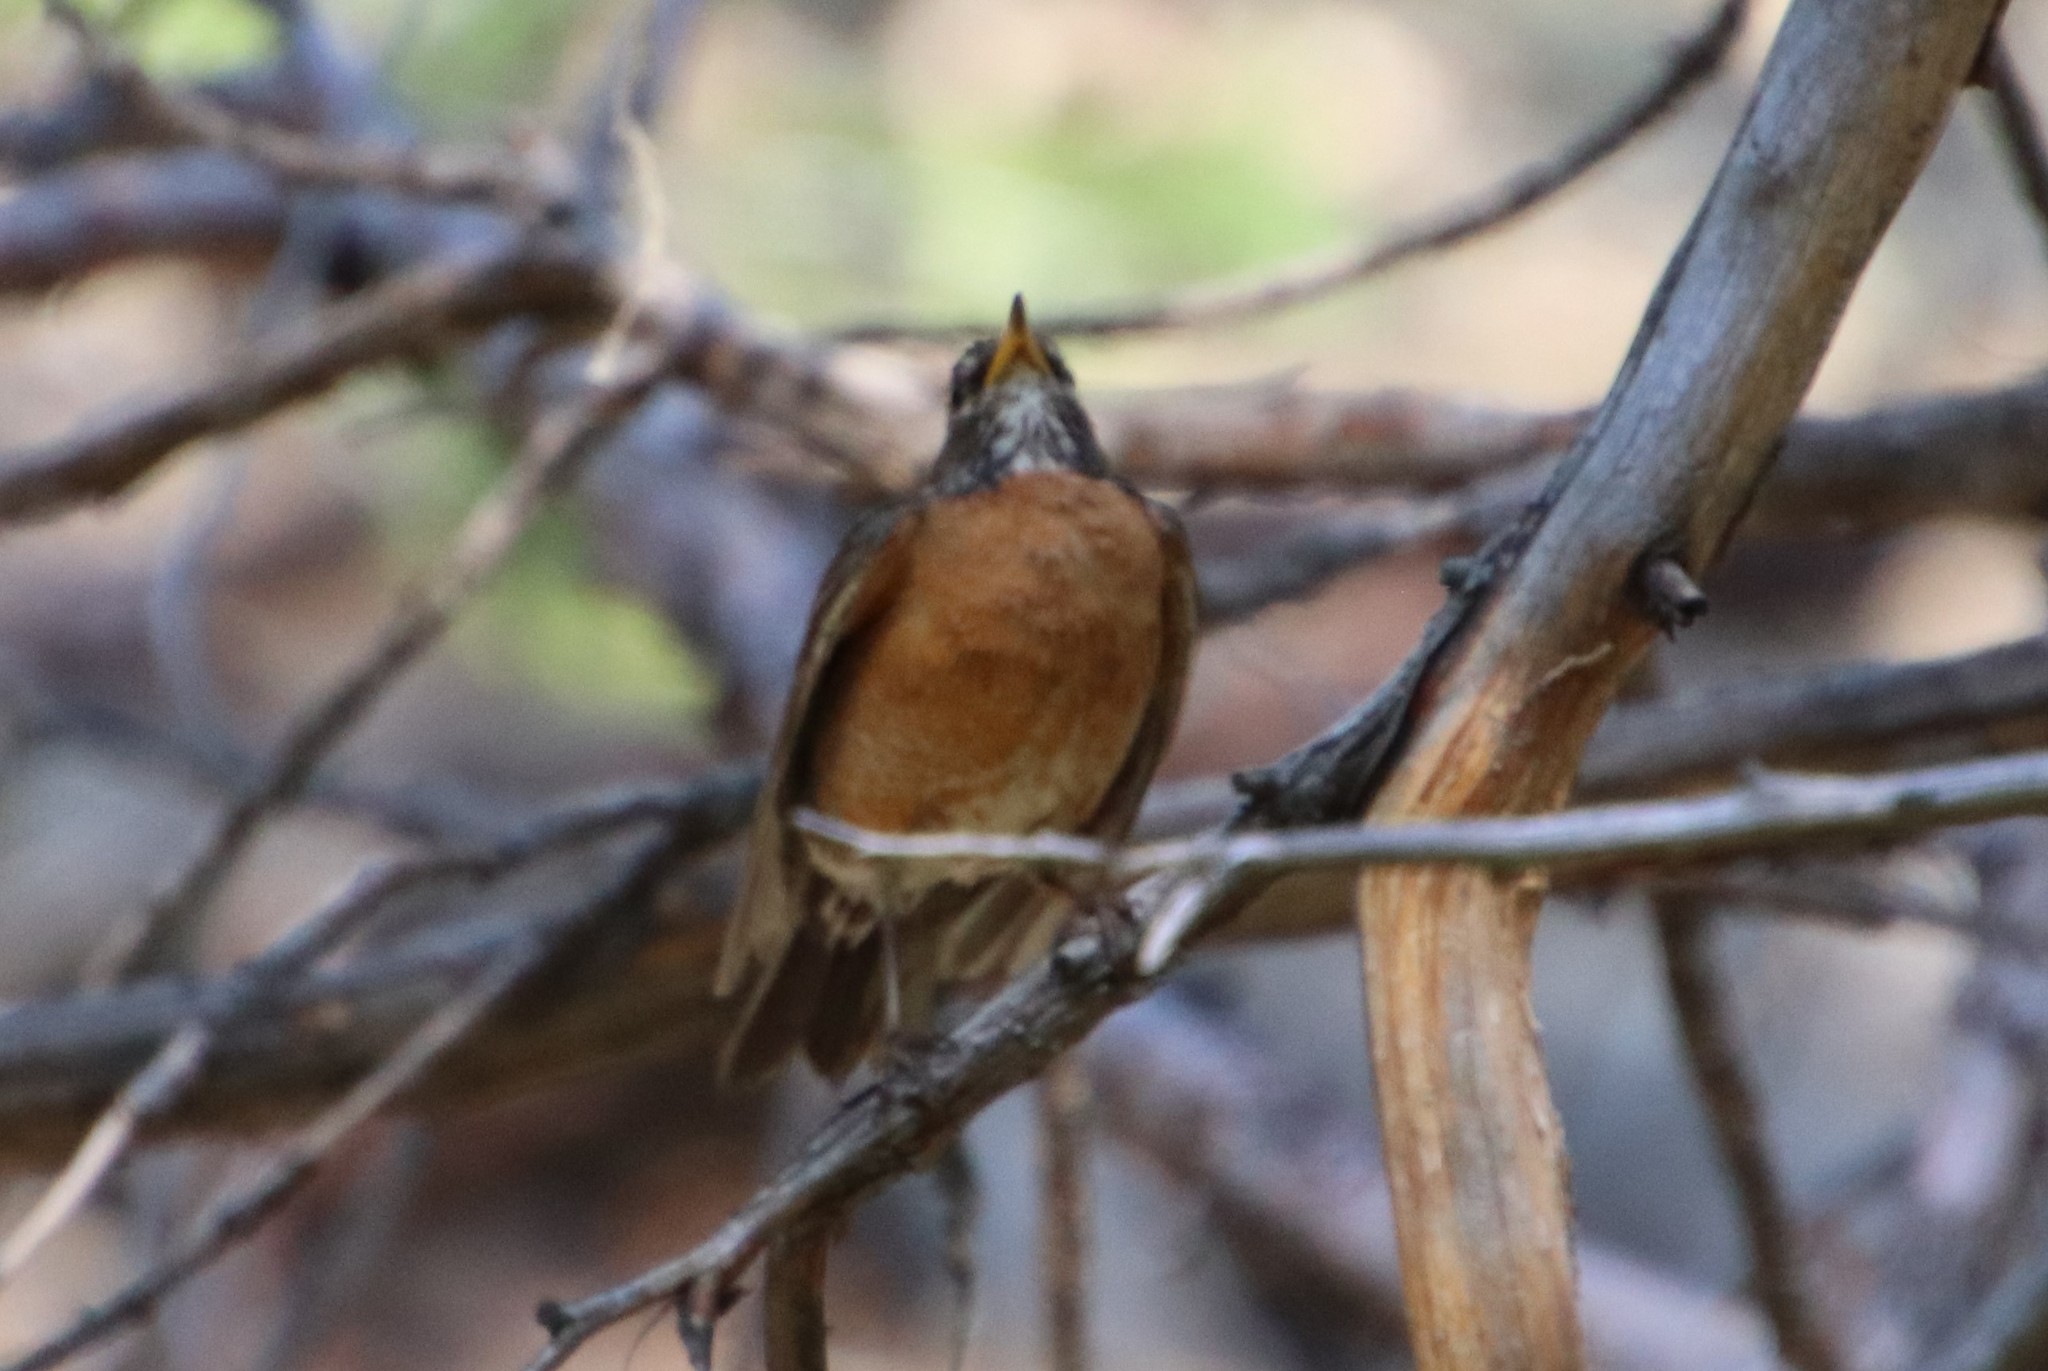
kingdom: Animalia
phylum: Chordata
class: Aves
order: Passeriformes
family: Turdidae
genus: Turdus
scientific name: Turdus migratorius
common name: American robin
